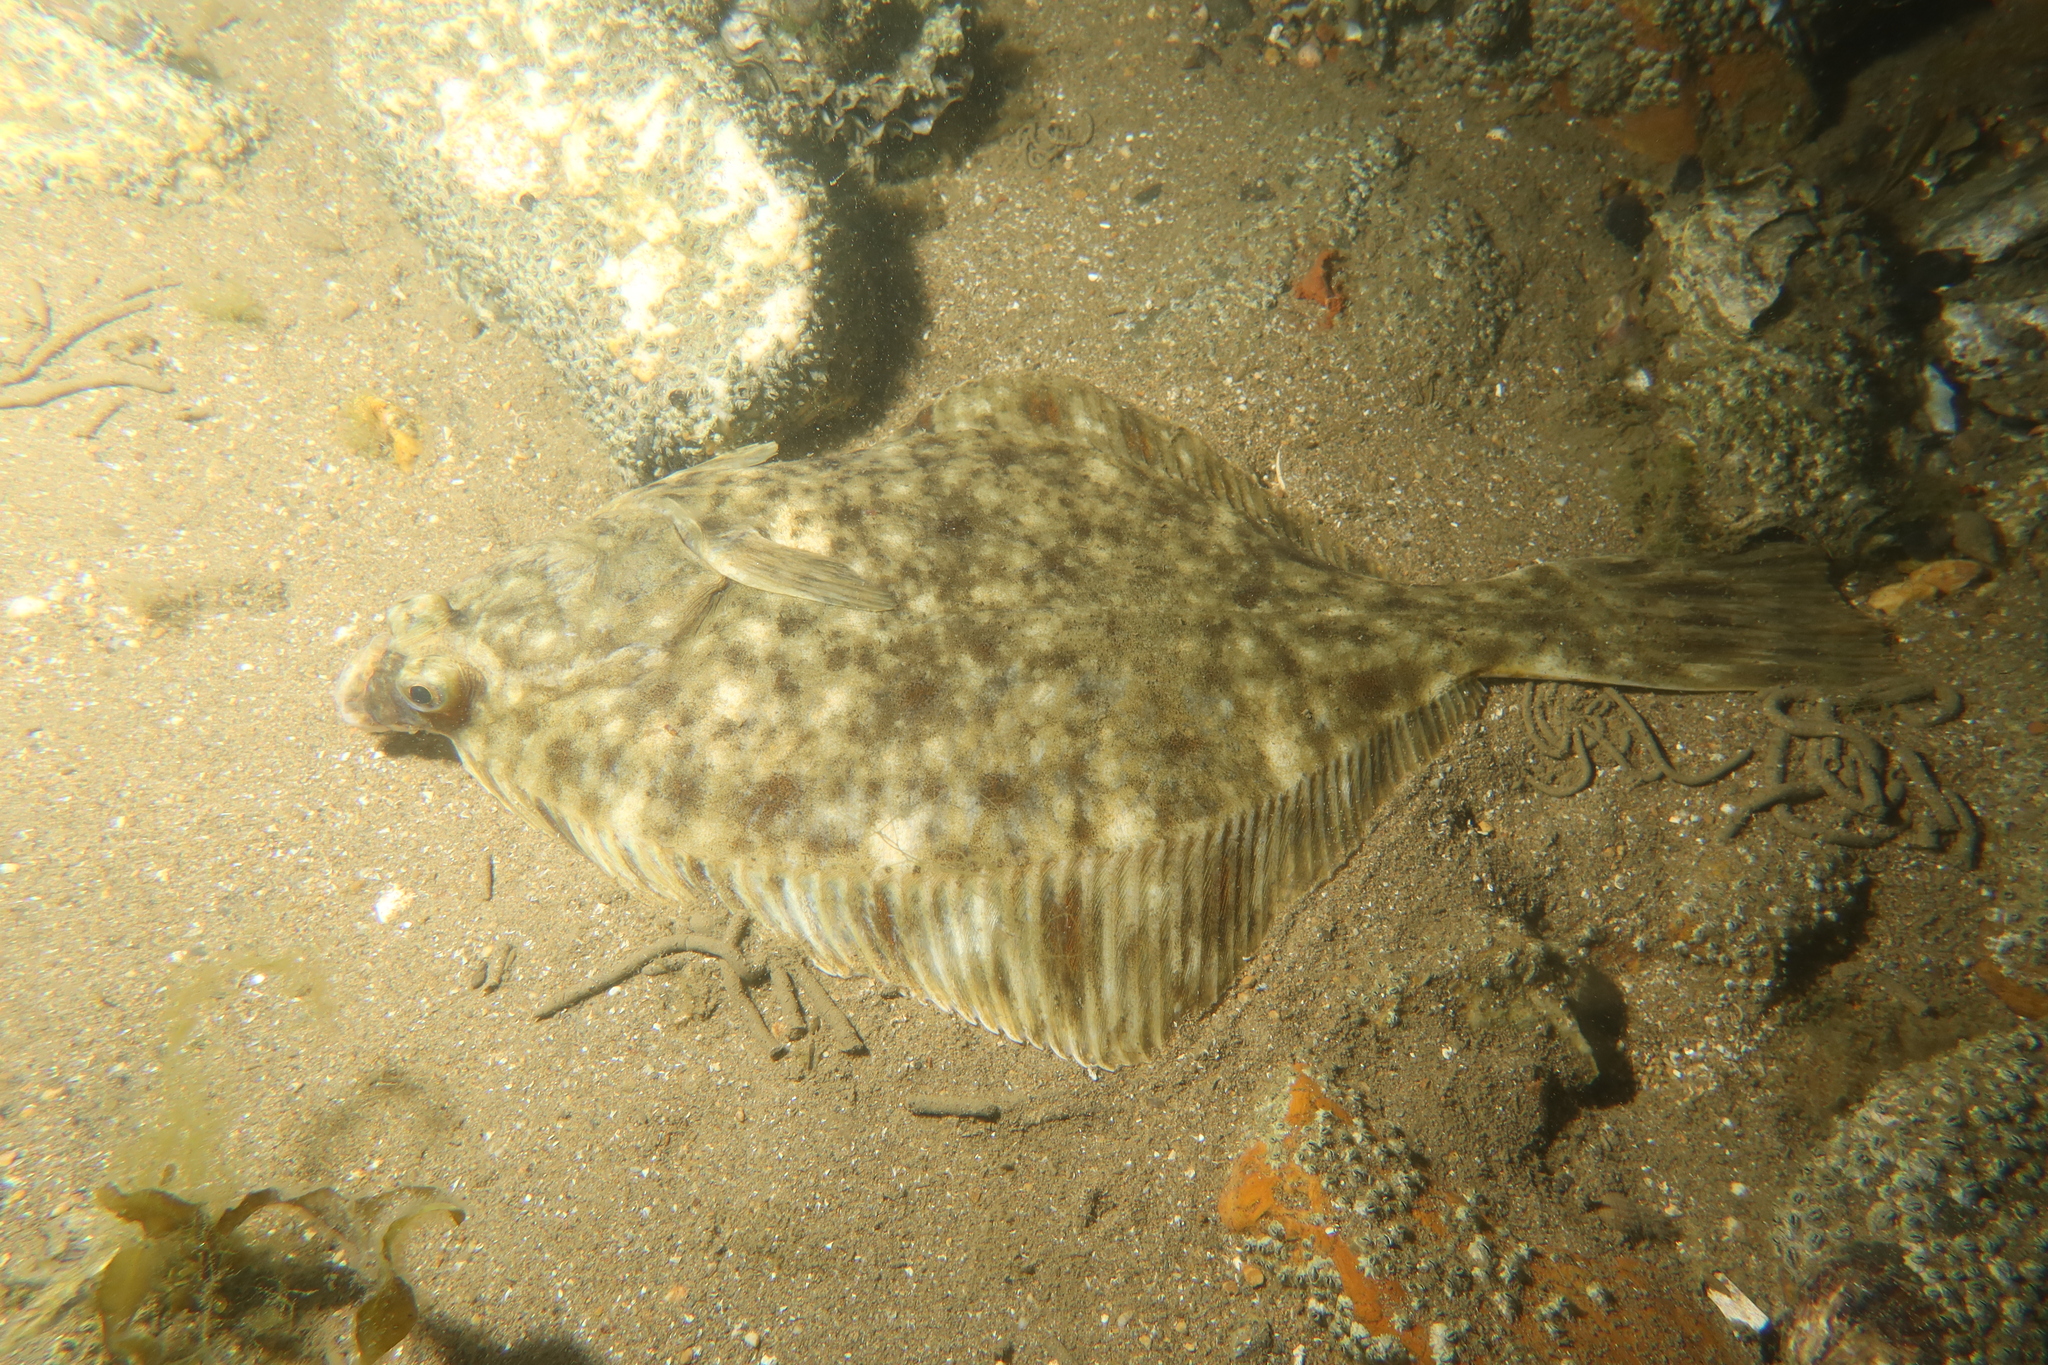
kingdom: Animalia
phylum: Chordata
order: Pleuronectiformes
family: Pleuronectidae
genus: Platichthys
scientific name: Platichthys flesus
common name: European flounder
